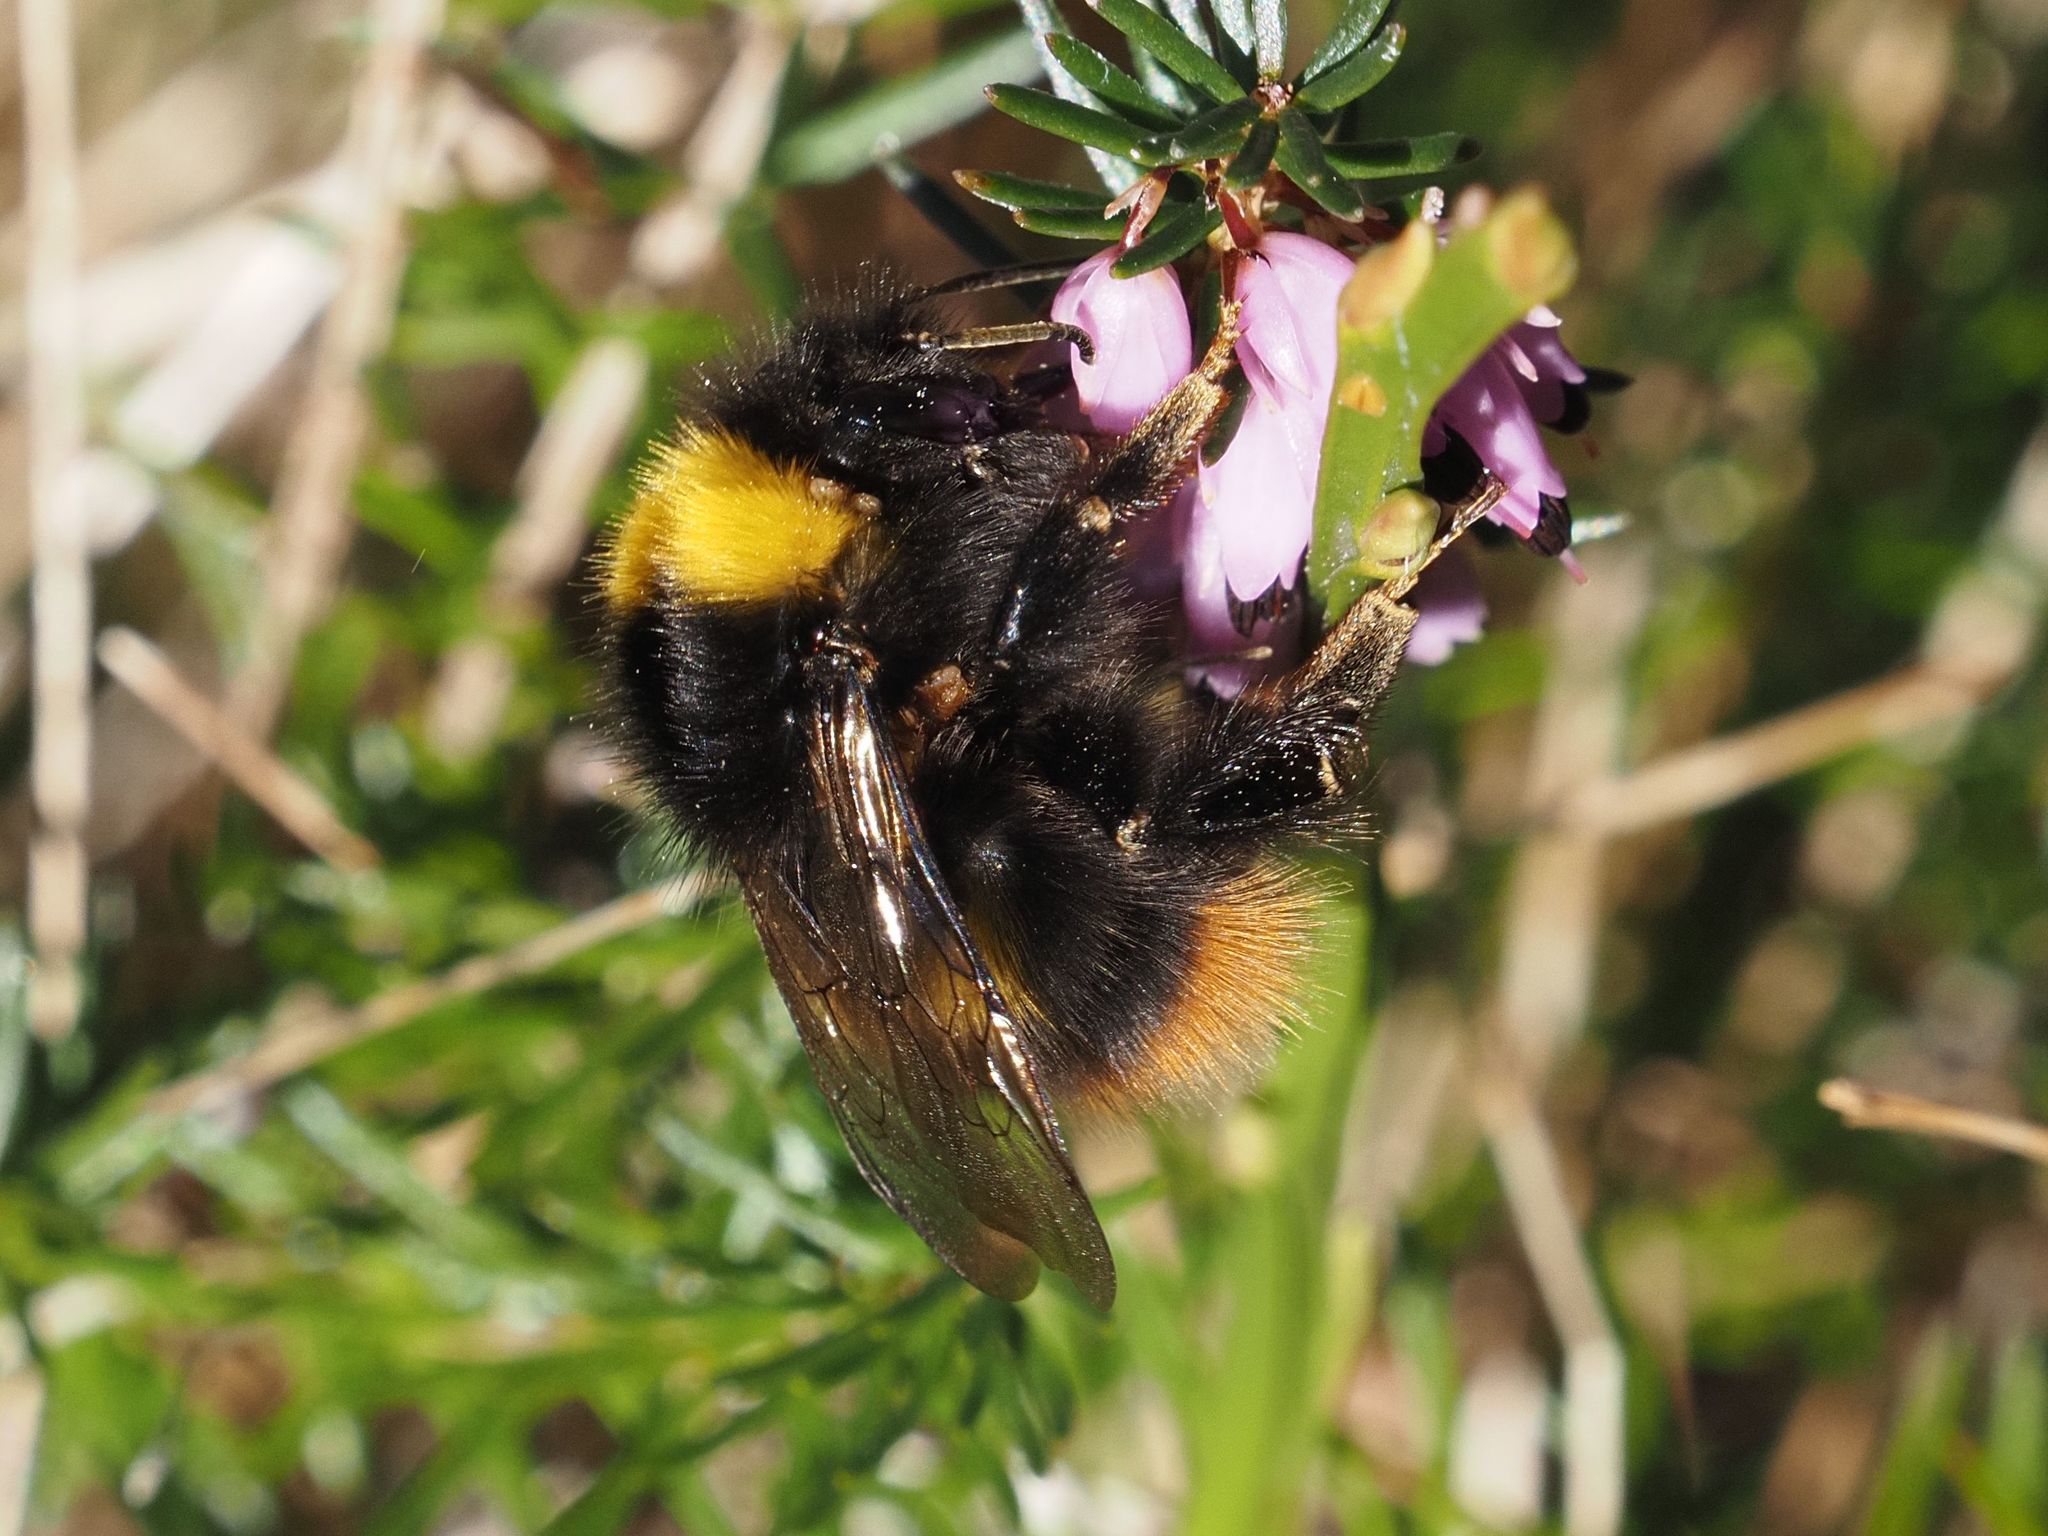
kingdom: Animalia
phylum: Arthropoda
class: Insecta
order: Hymenoptera
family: Apidae
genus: Bombus
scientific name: Bombus pratorum
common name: Early humble-bee
